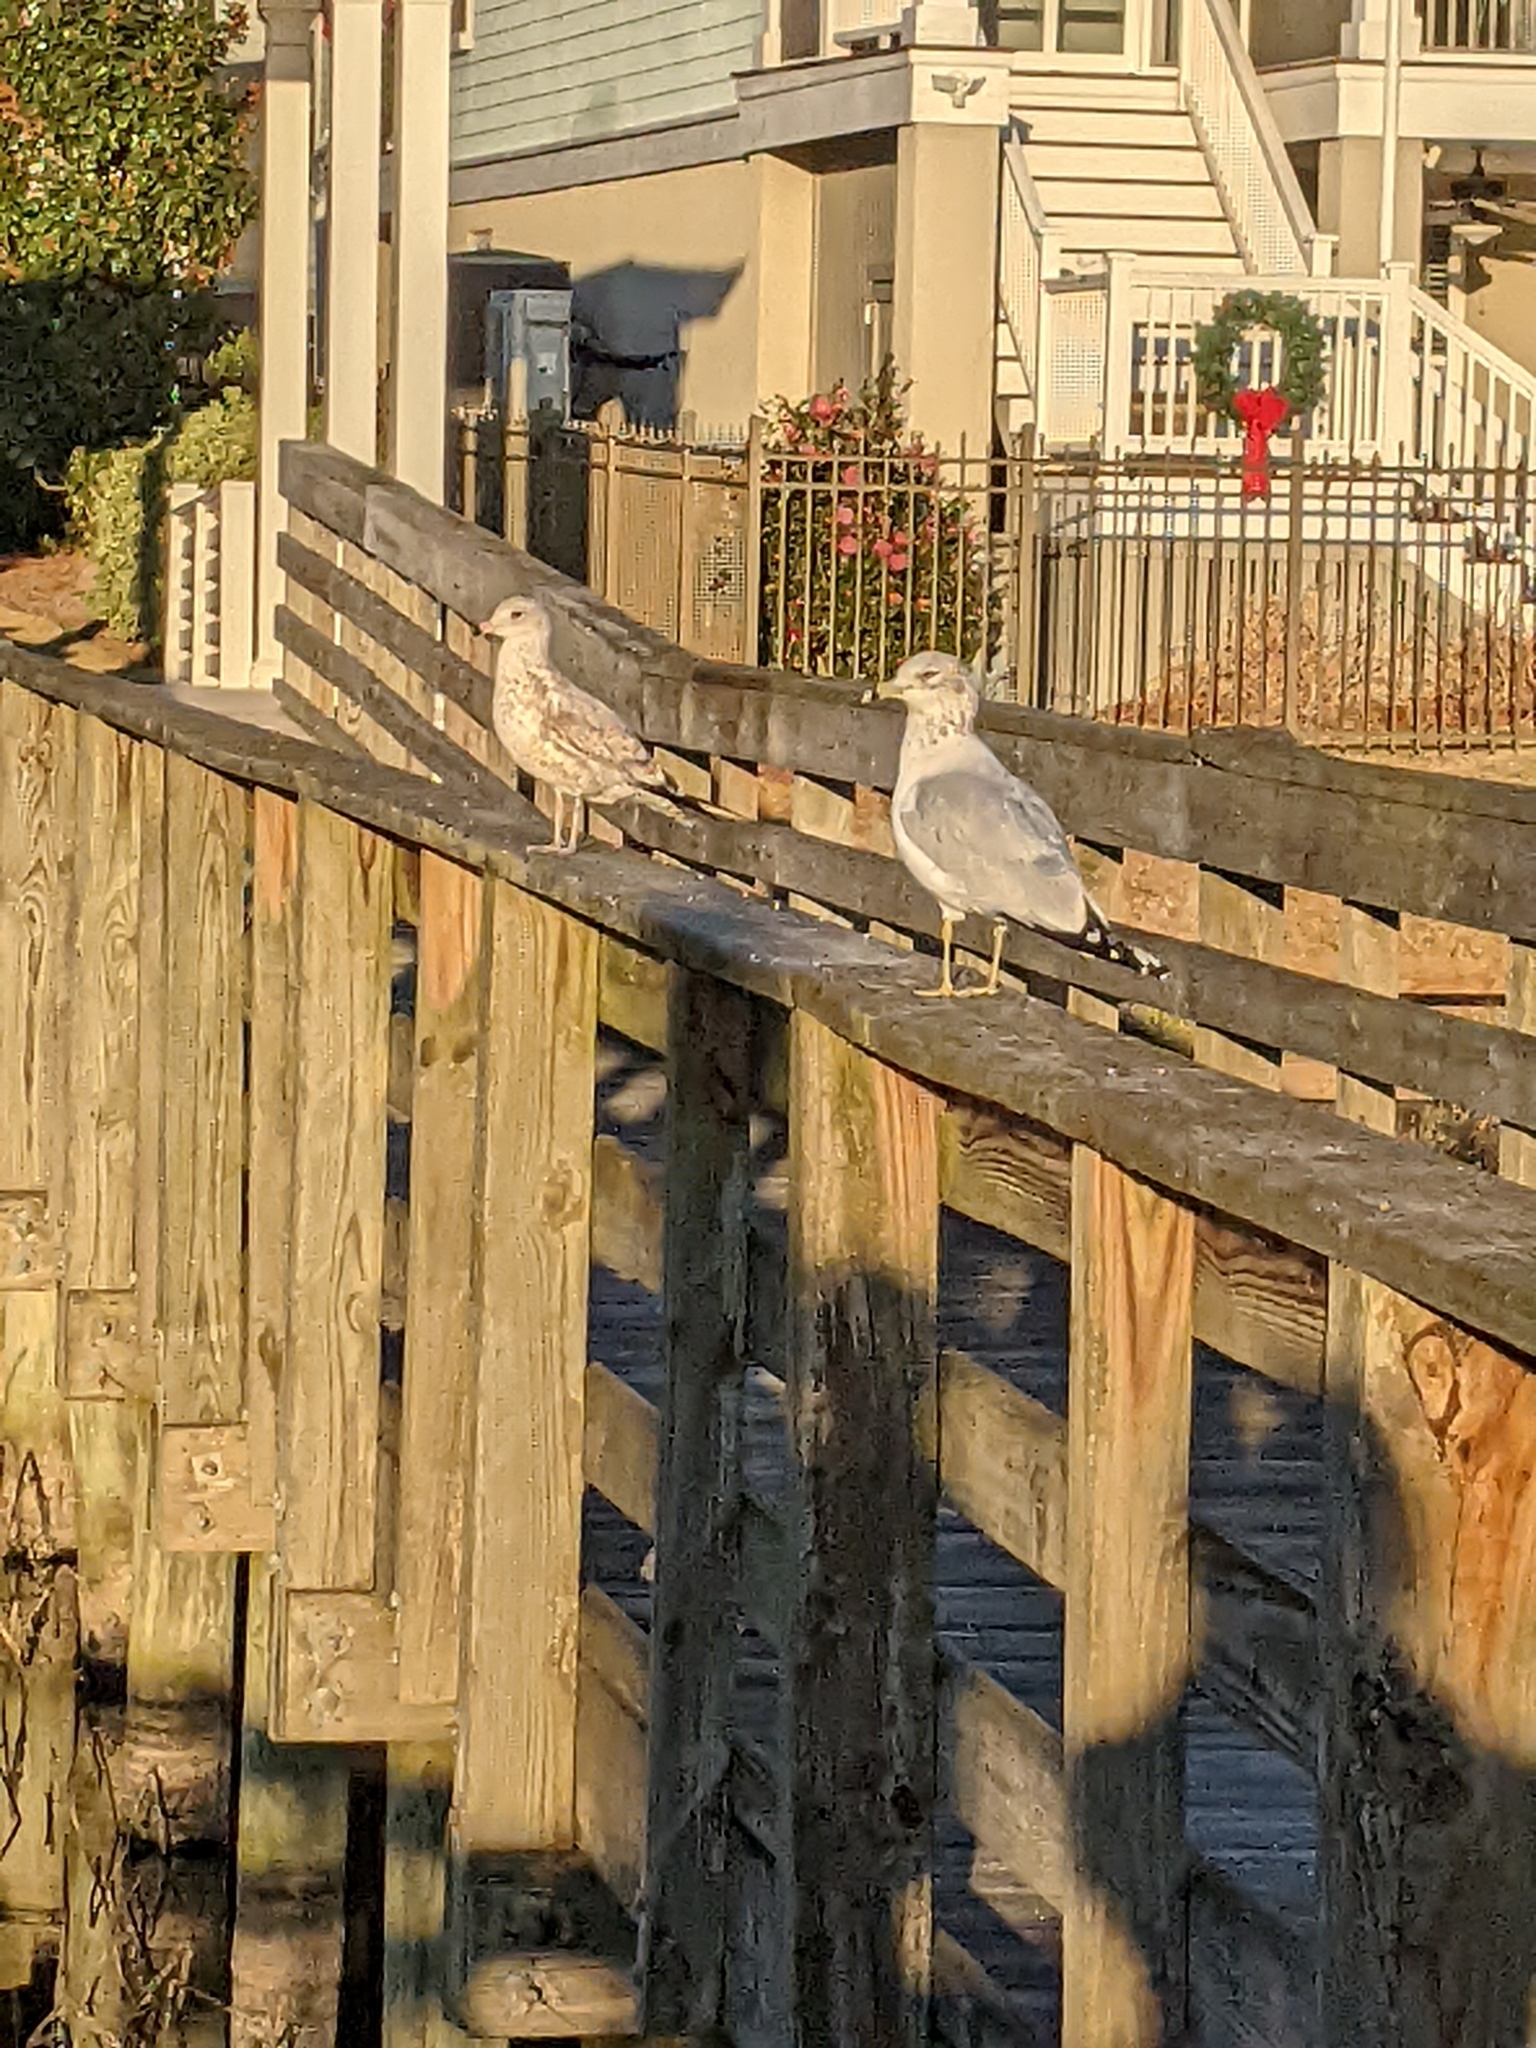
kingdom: Animalia
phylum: Chordata
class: Aves
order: Charadriiformes
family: Laridae
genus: Larus
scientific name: Larus delawarensis
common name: Ring-billed gull
